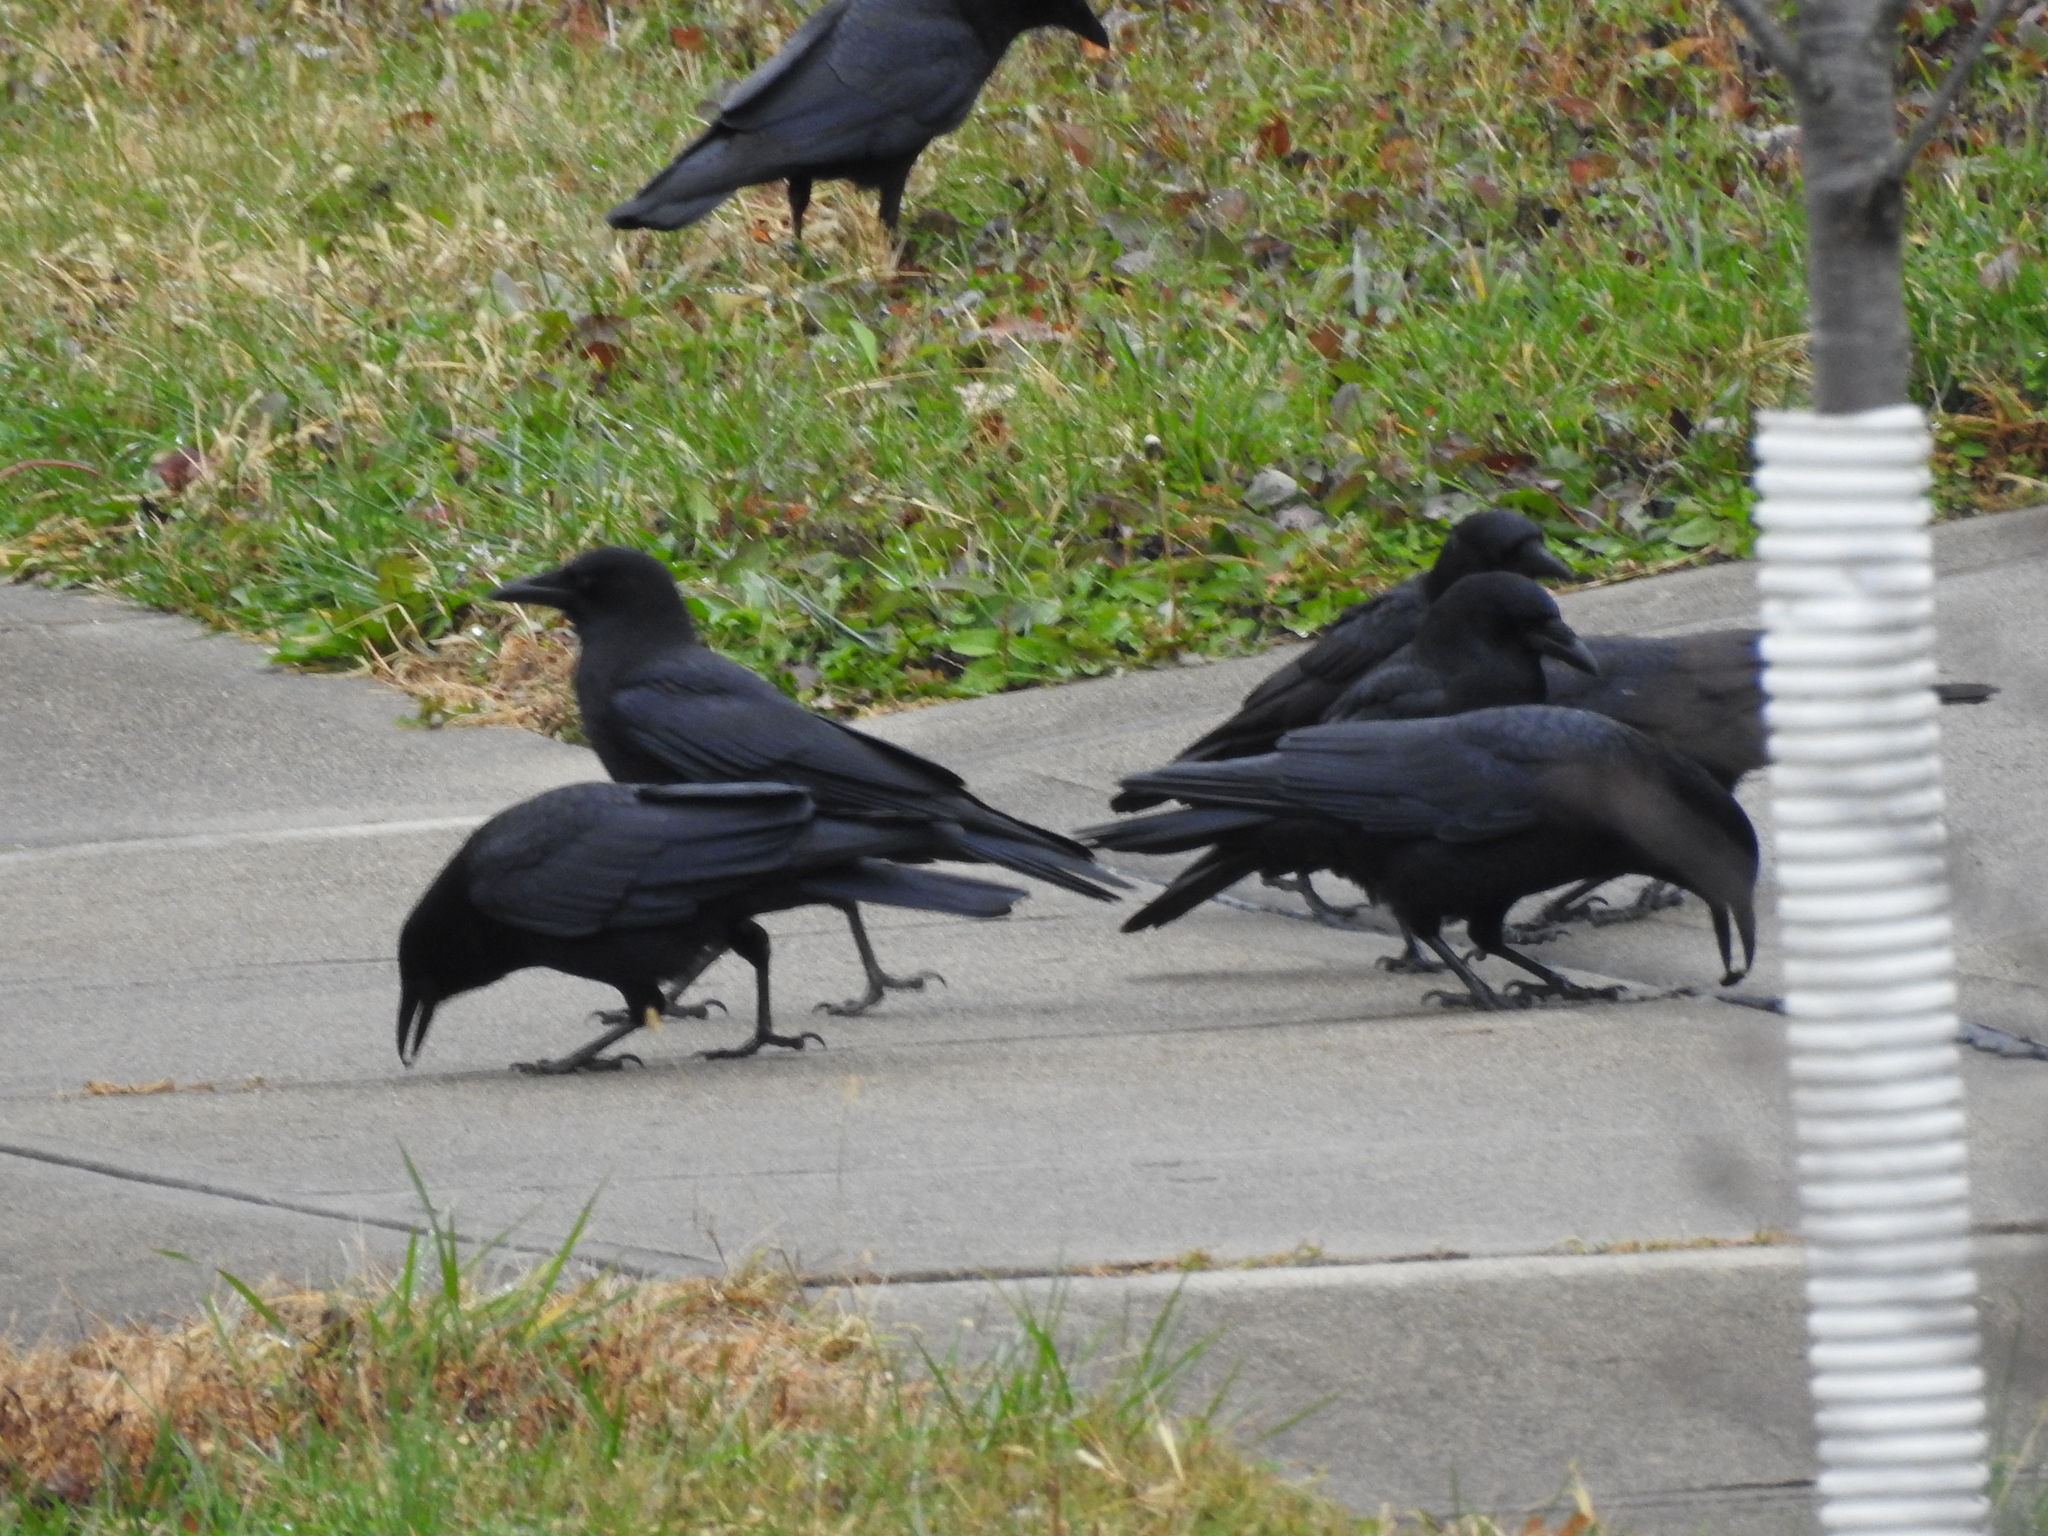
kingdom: Animalia
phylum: Chordata
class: Aves
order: Passeriformes
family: Corvidae
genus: Corvus
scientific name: Corvus brachyrhynchos
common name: American crow
